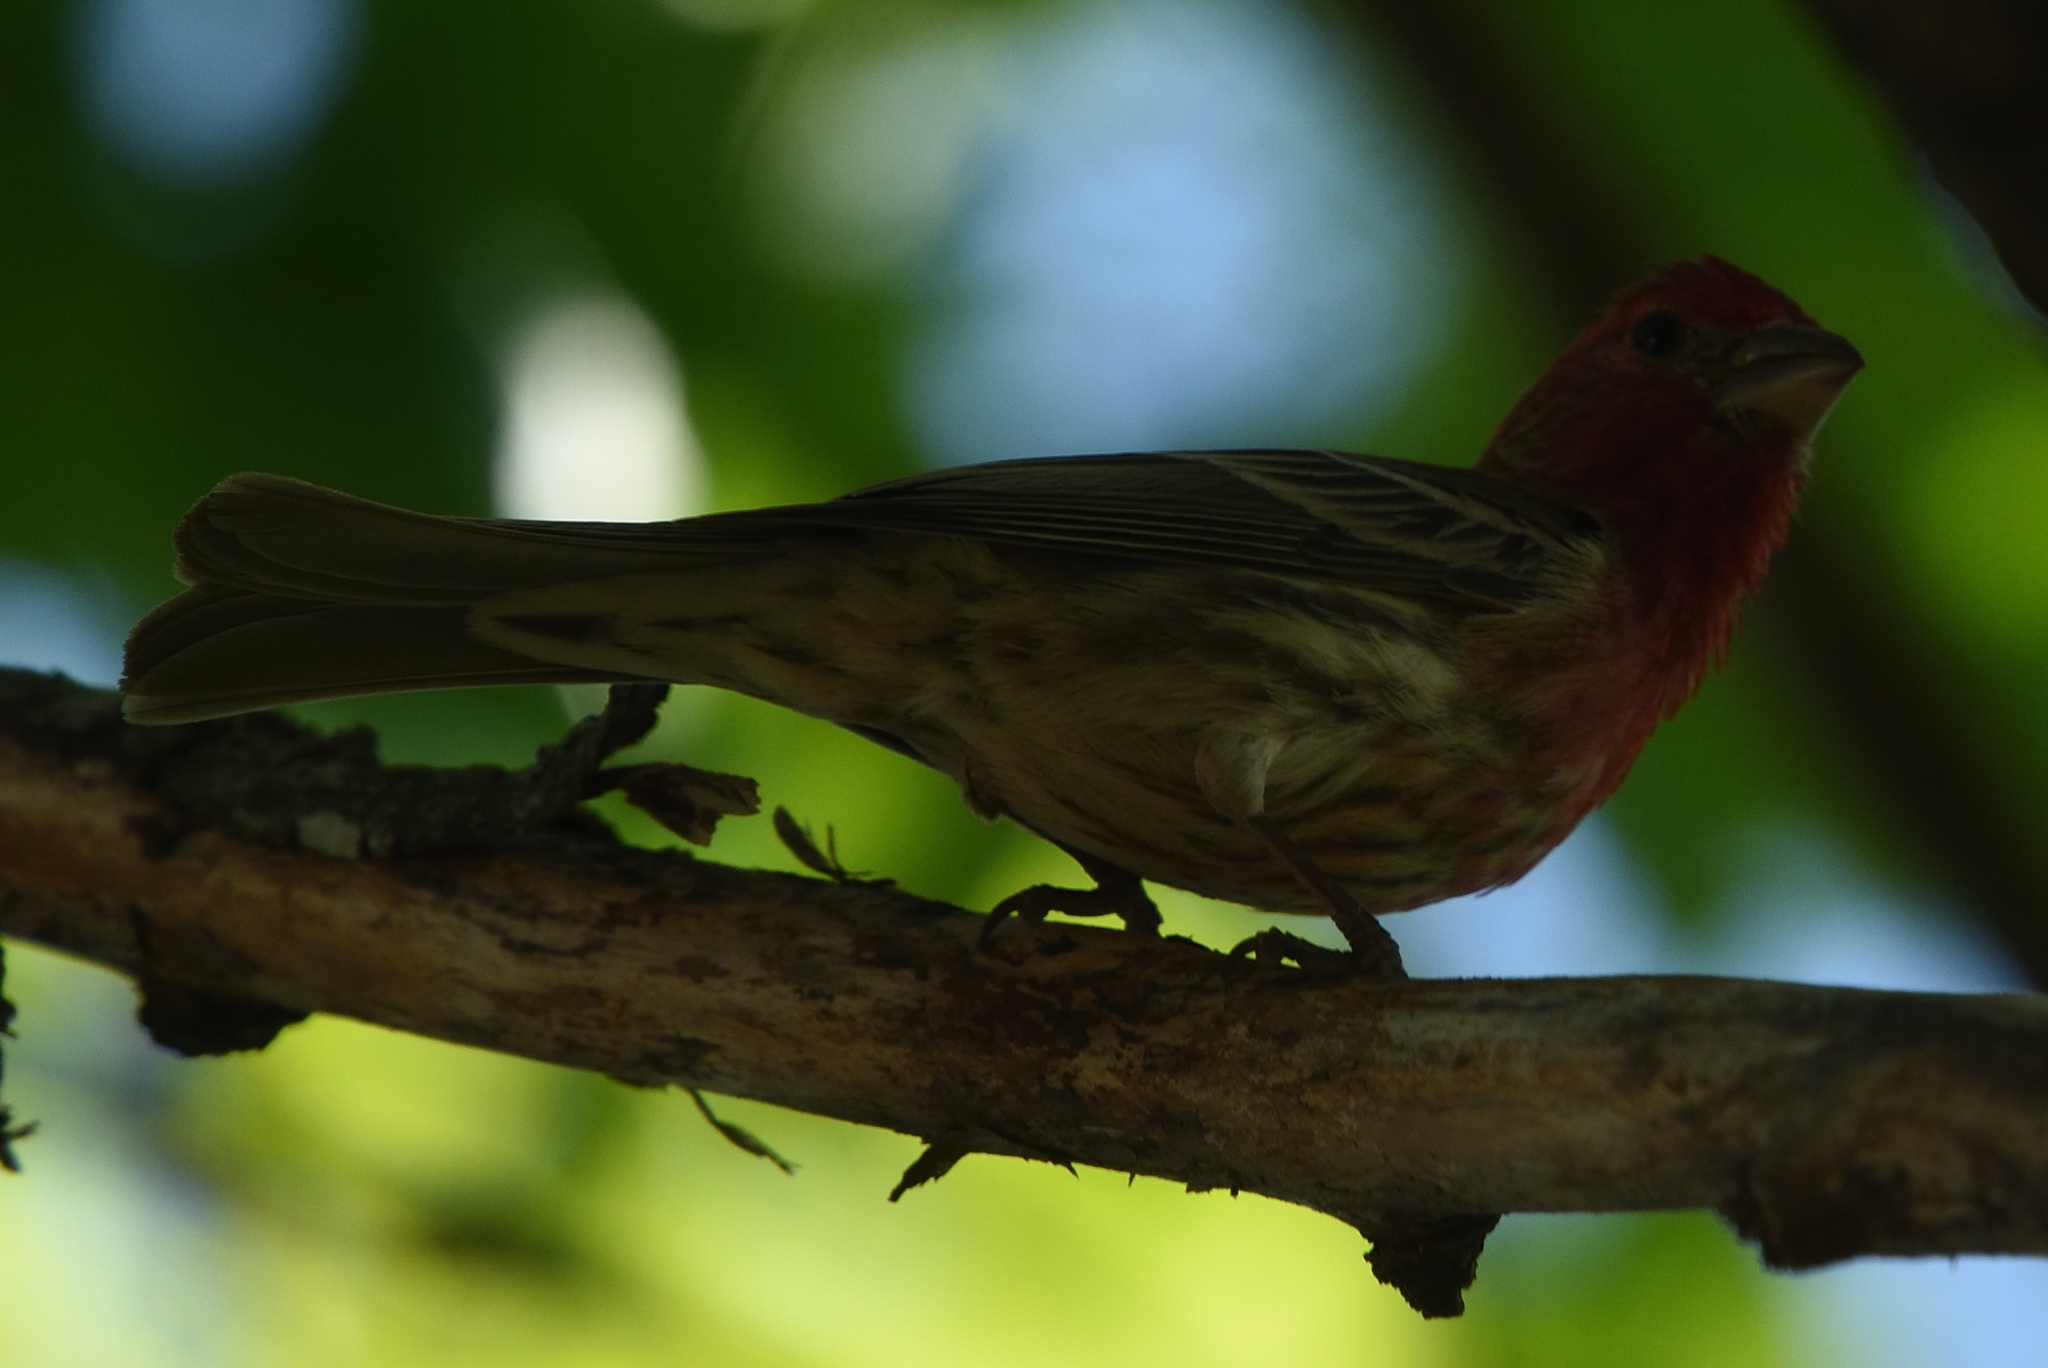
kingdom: Animalia
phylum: Chordata
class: Aves
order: Passeriformes
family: Fringillidae
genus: Haemorhous
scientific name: Haemorhous mexicanus
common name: House finch
